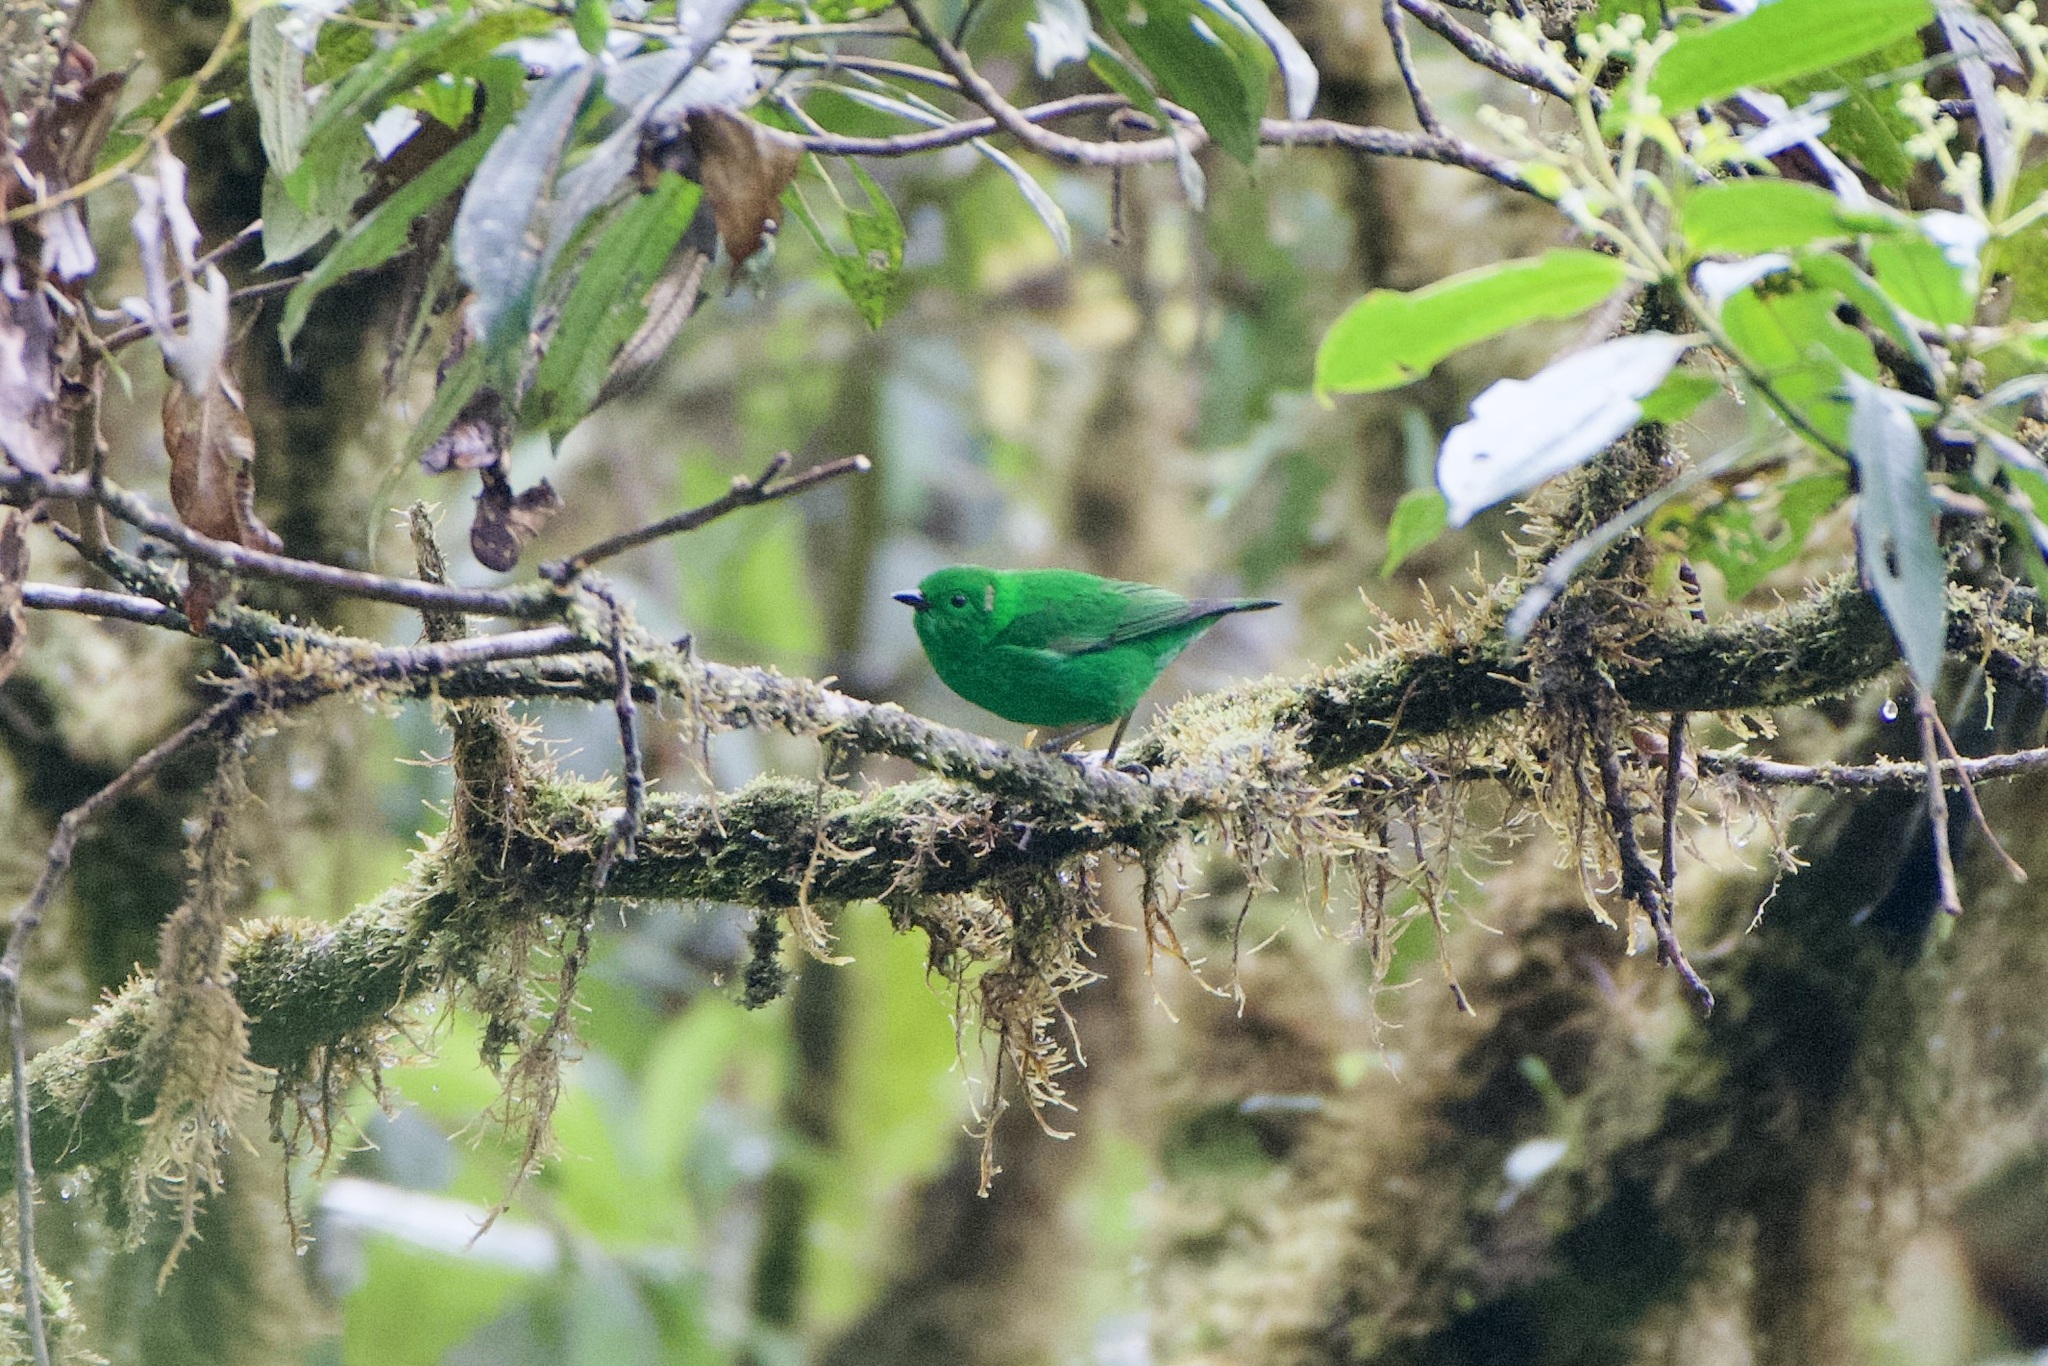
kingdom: Animalia
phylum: Chordata
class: Aves
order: Passeriformes
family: Thraupidae
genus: Chlorochrysa
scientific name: Chlorochrysa phoenicotis
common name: Glistening-green tanager
